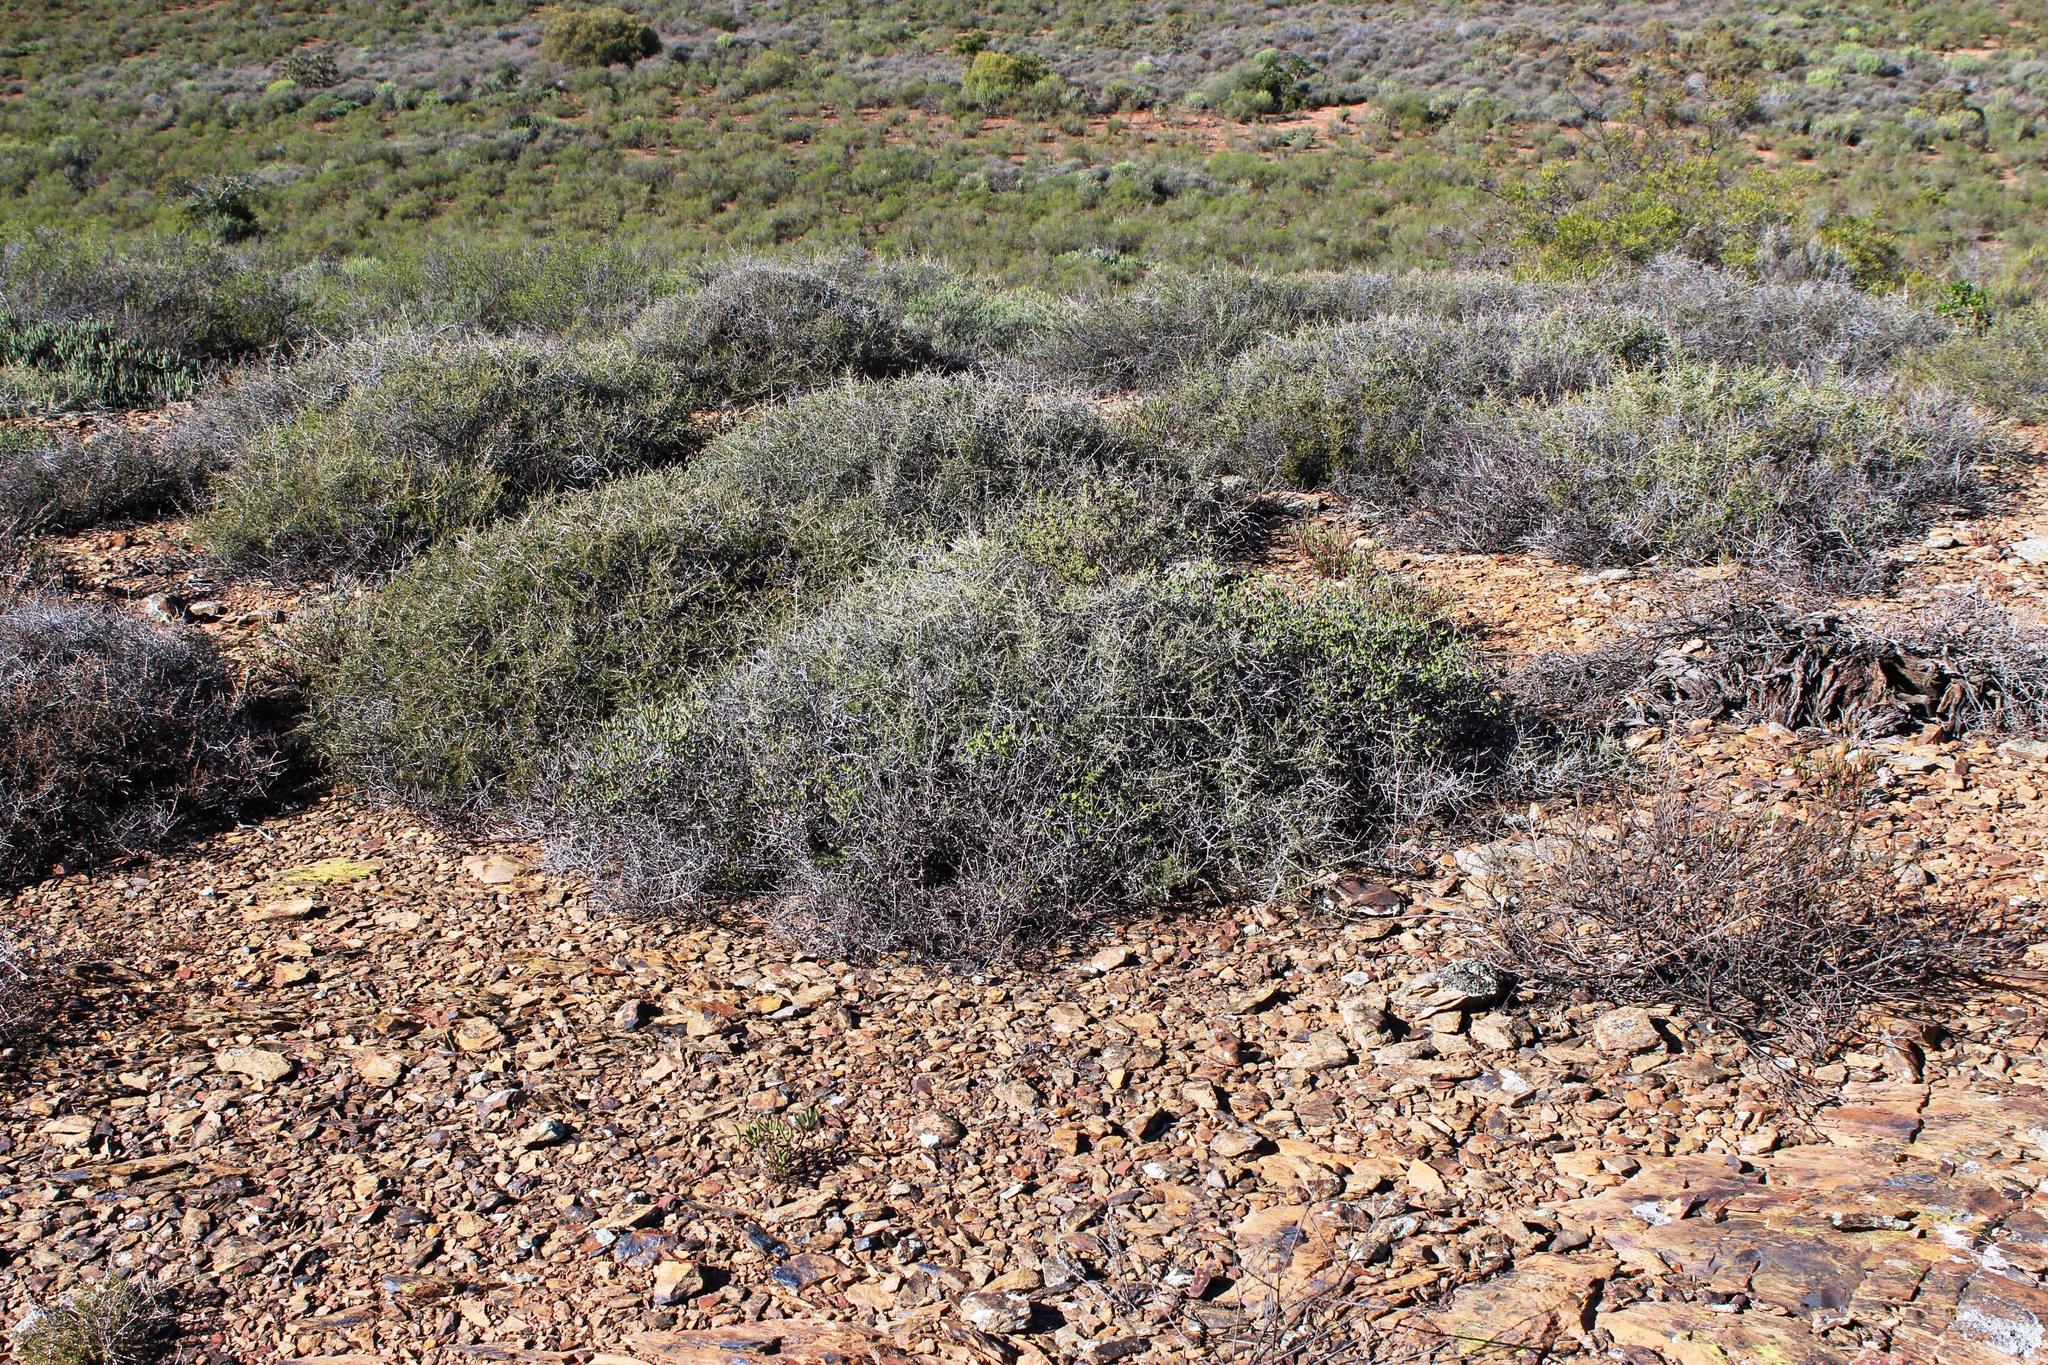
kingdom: Plantae
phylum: Tracheophyta
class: Magnoliopsida
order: Fabales
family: Fabaceae
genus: Aspalathus
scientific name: Aspalathus lactea
